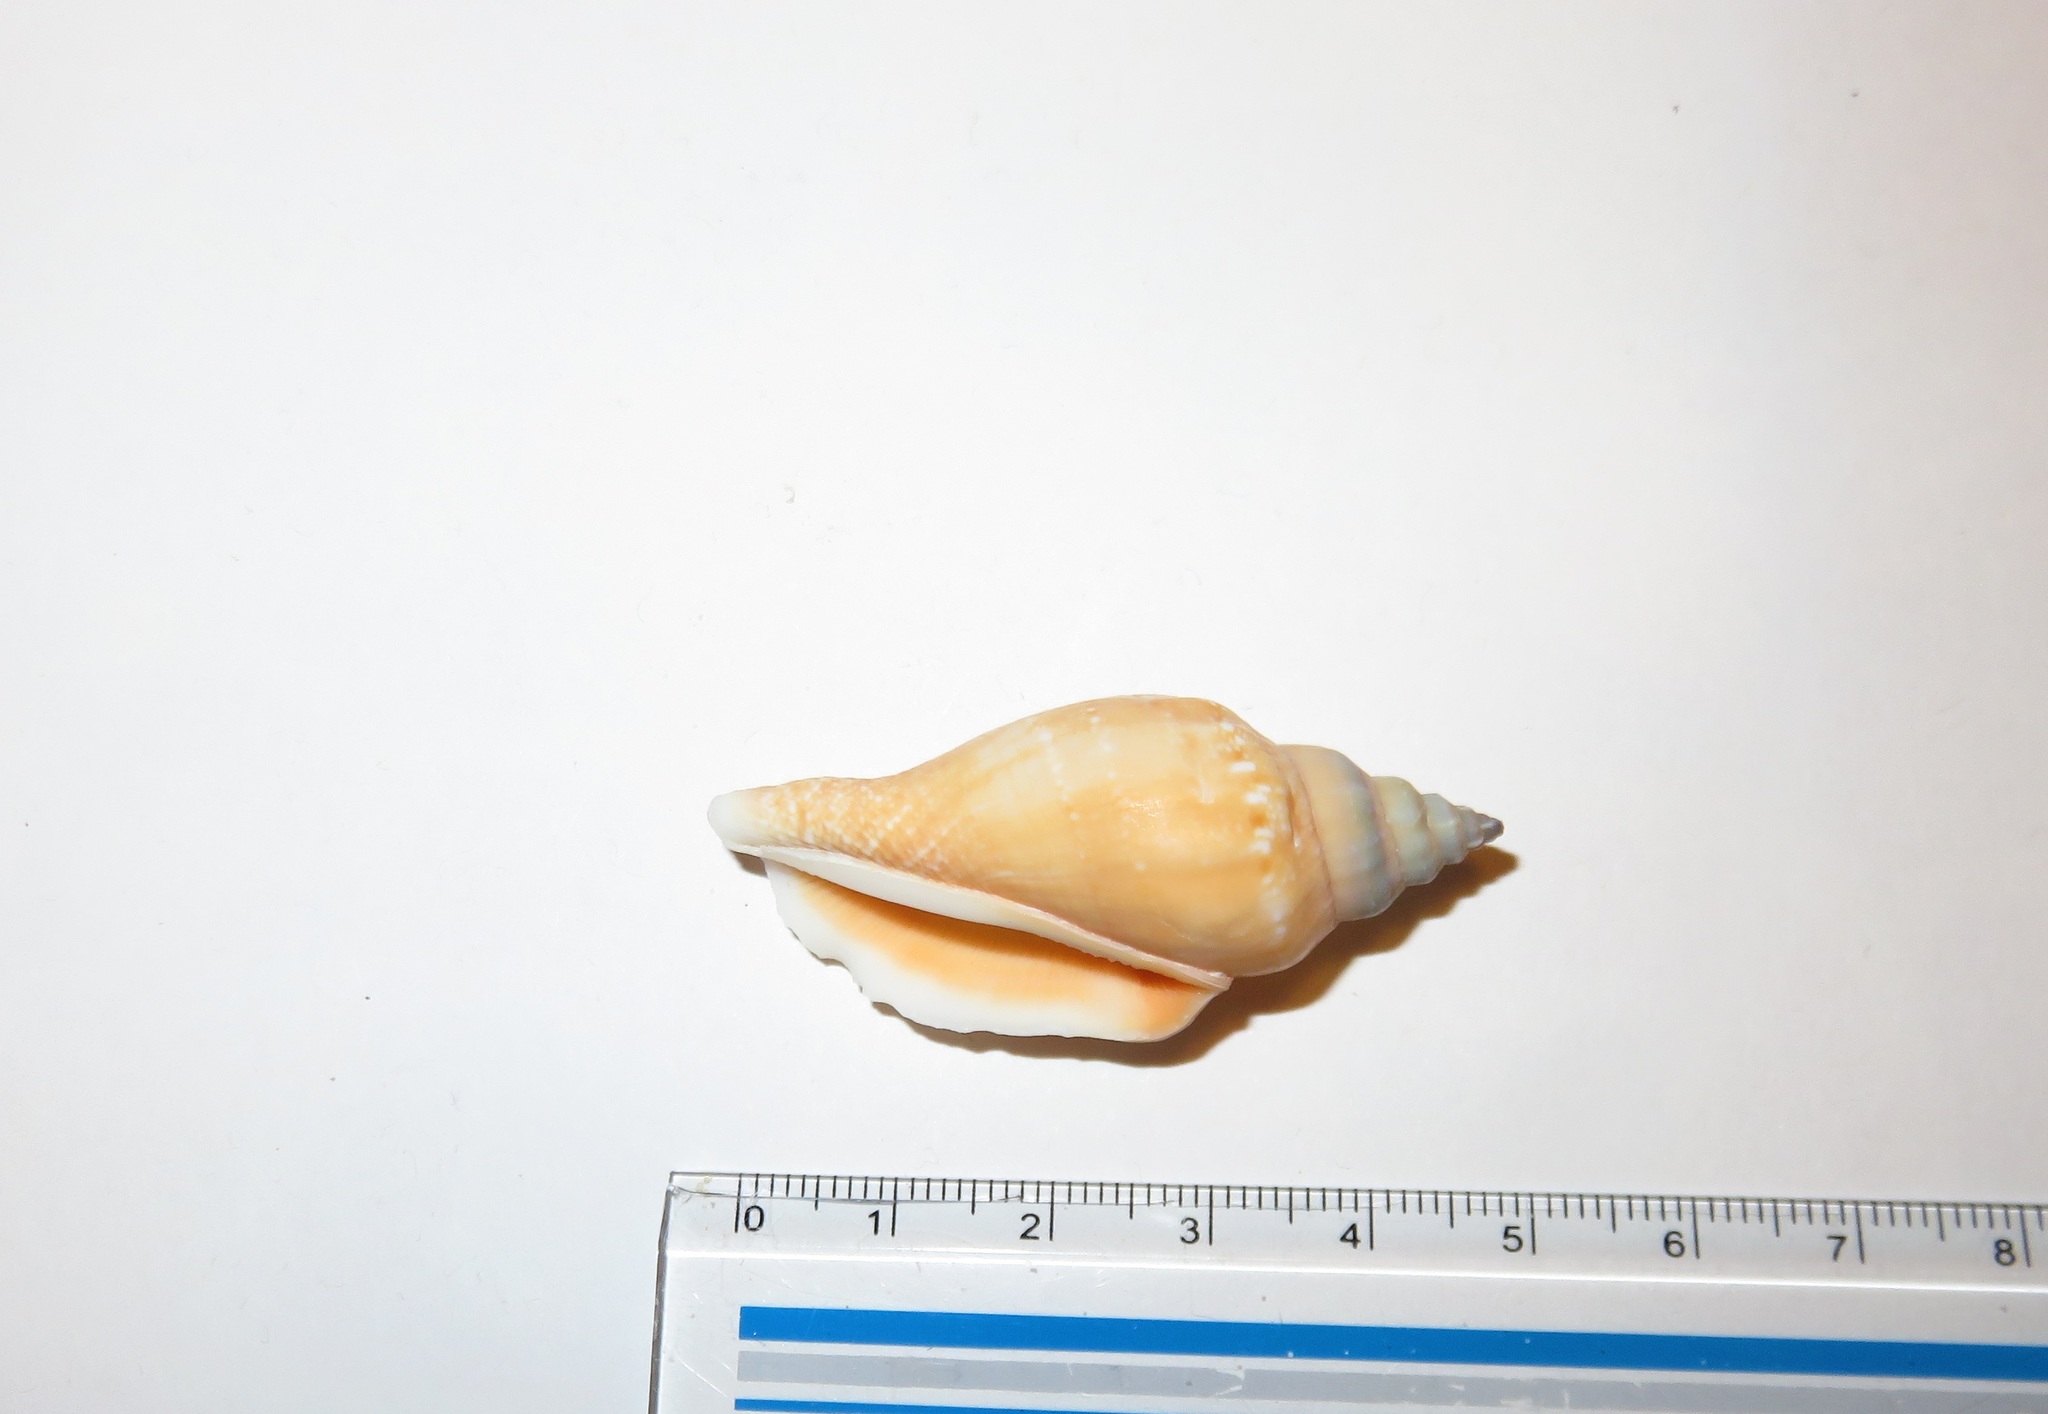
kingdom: Animalia
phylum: Mollusca
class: Gastropoda
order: Littorinimorpha
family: Strombidae
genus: Canarium
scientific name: Canarium urceus
